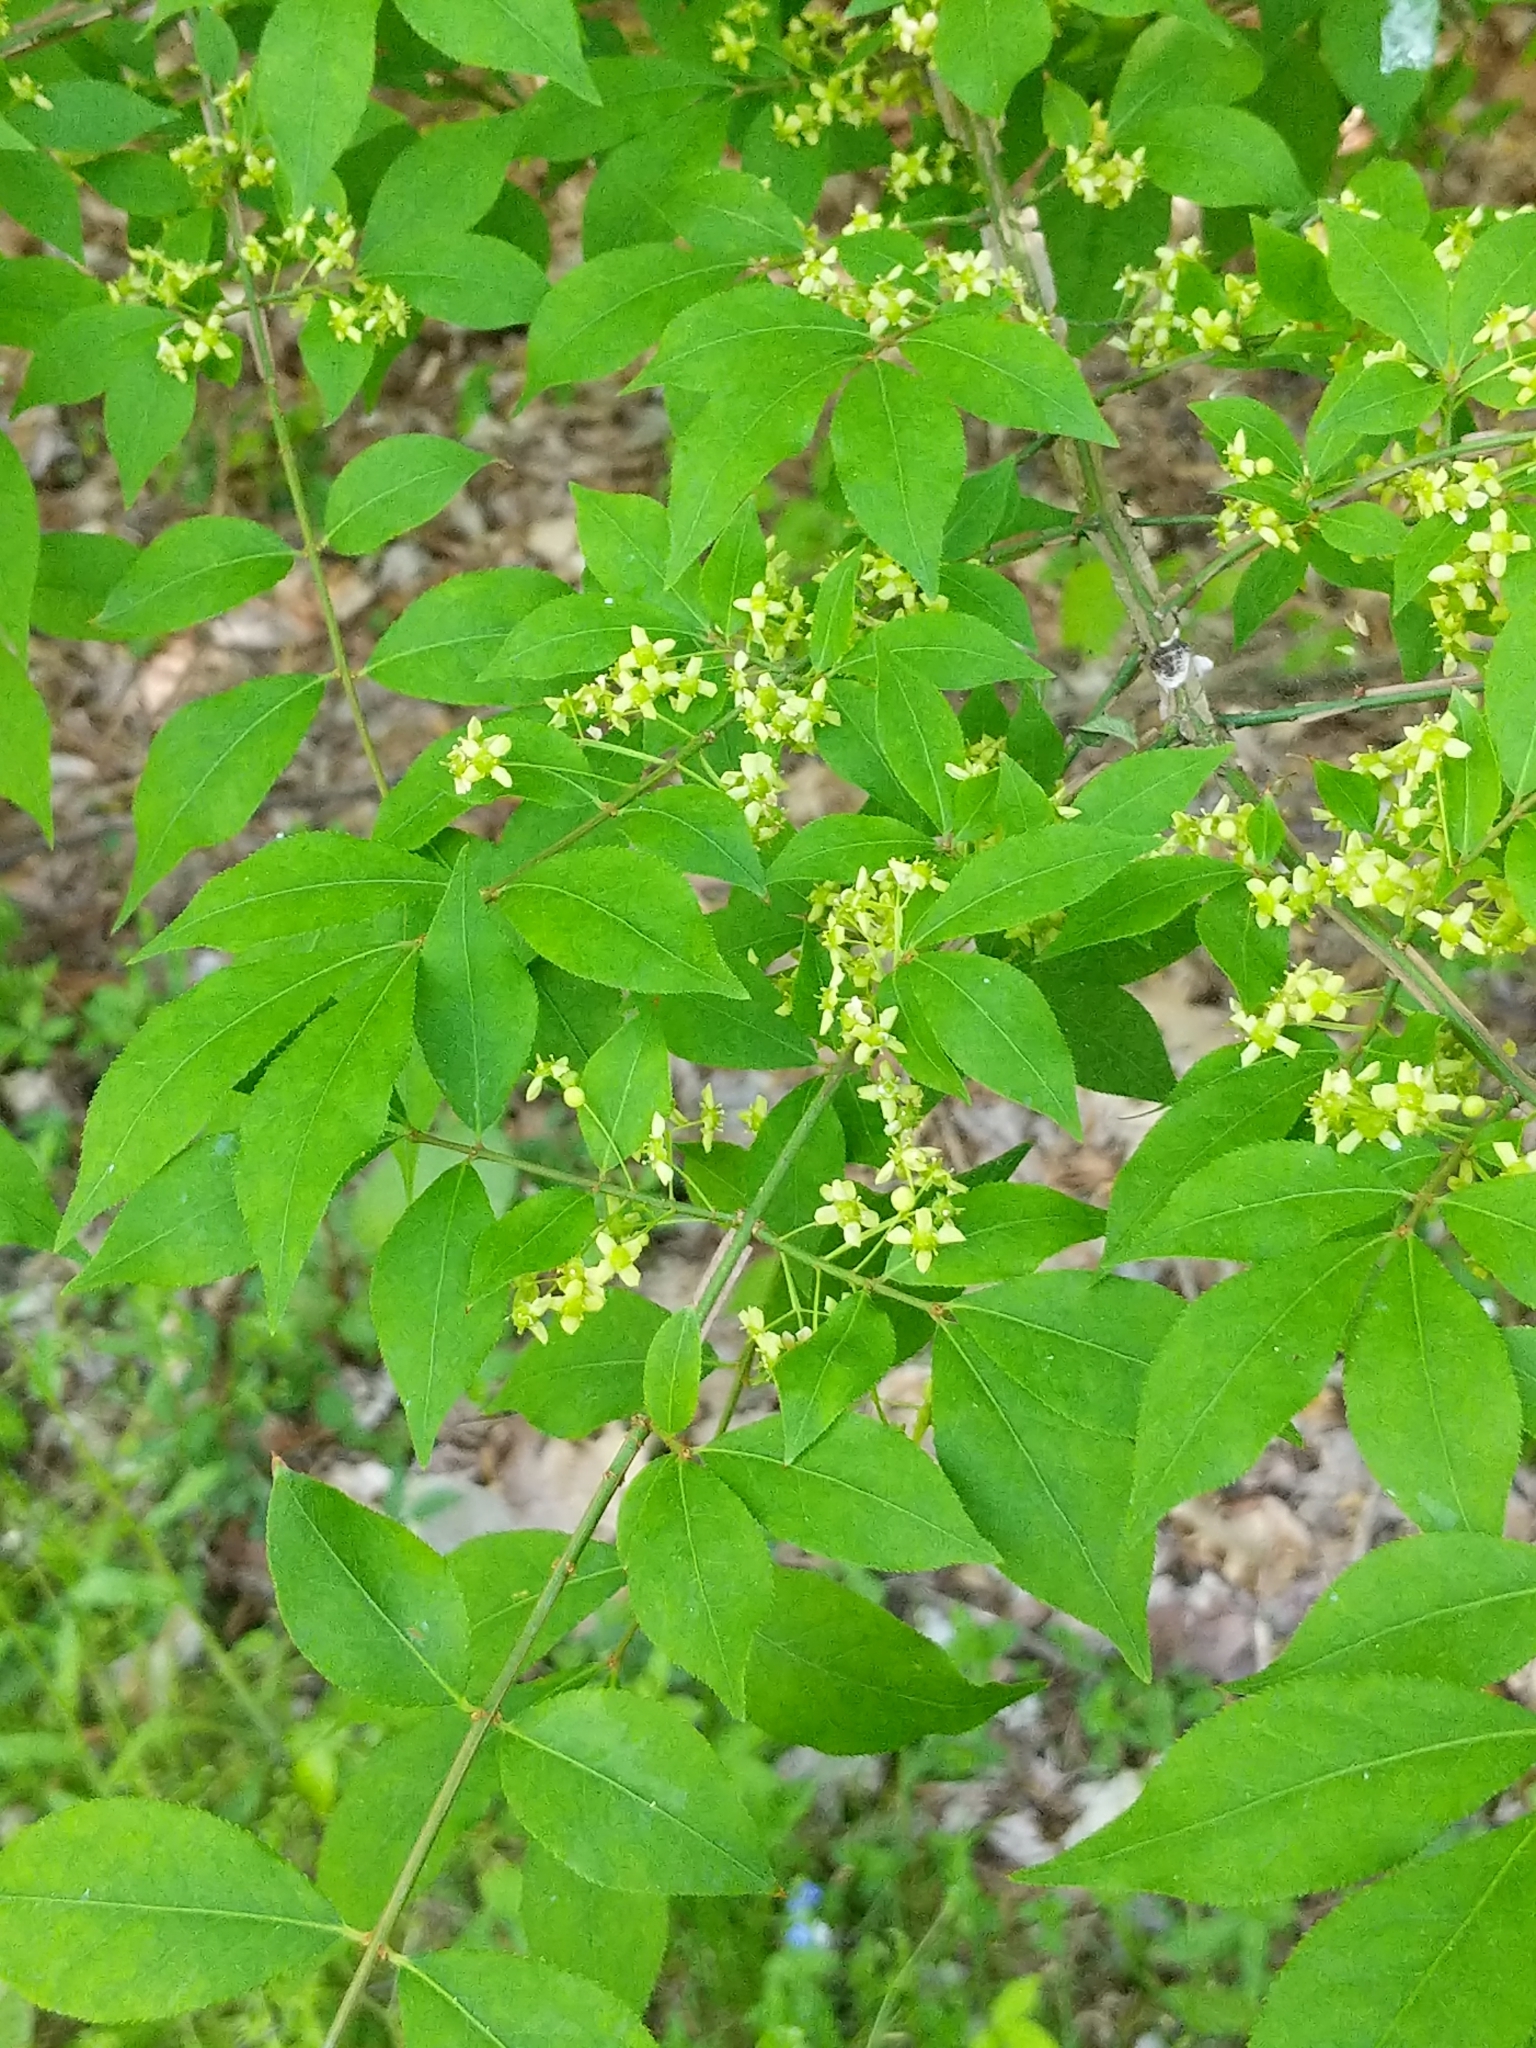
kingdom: Plantae
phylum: Tracheophyta
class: Magnoliopsida
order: Celastrales
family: Celastraceae
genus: Euonymus
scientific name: Euonymus alatus
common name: Winged euonymus
